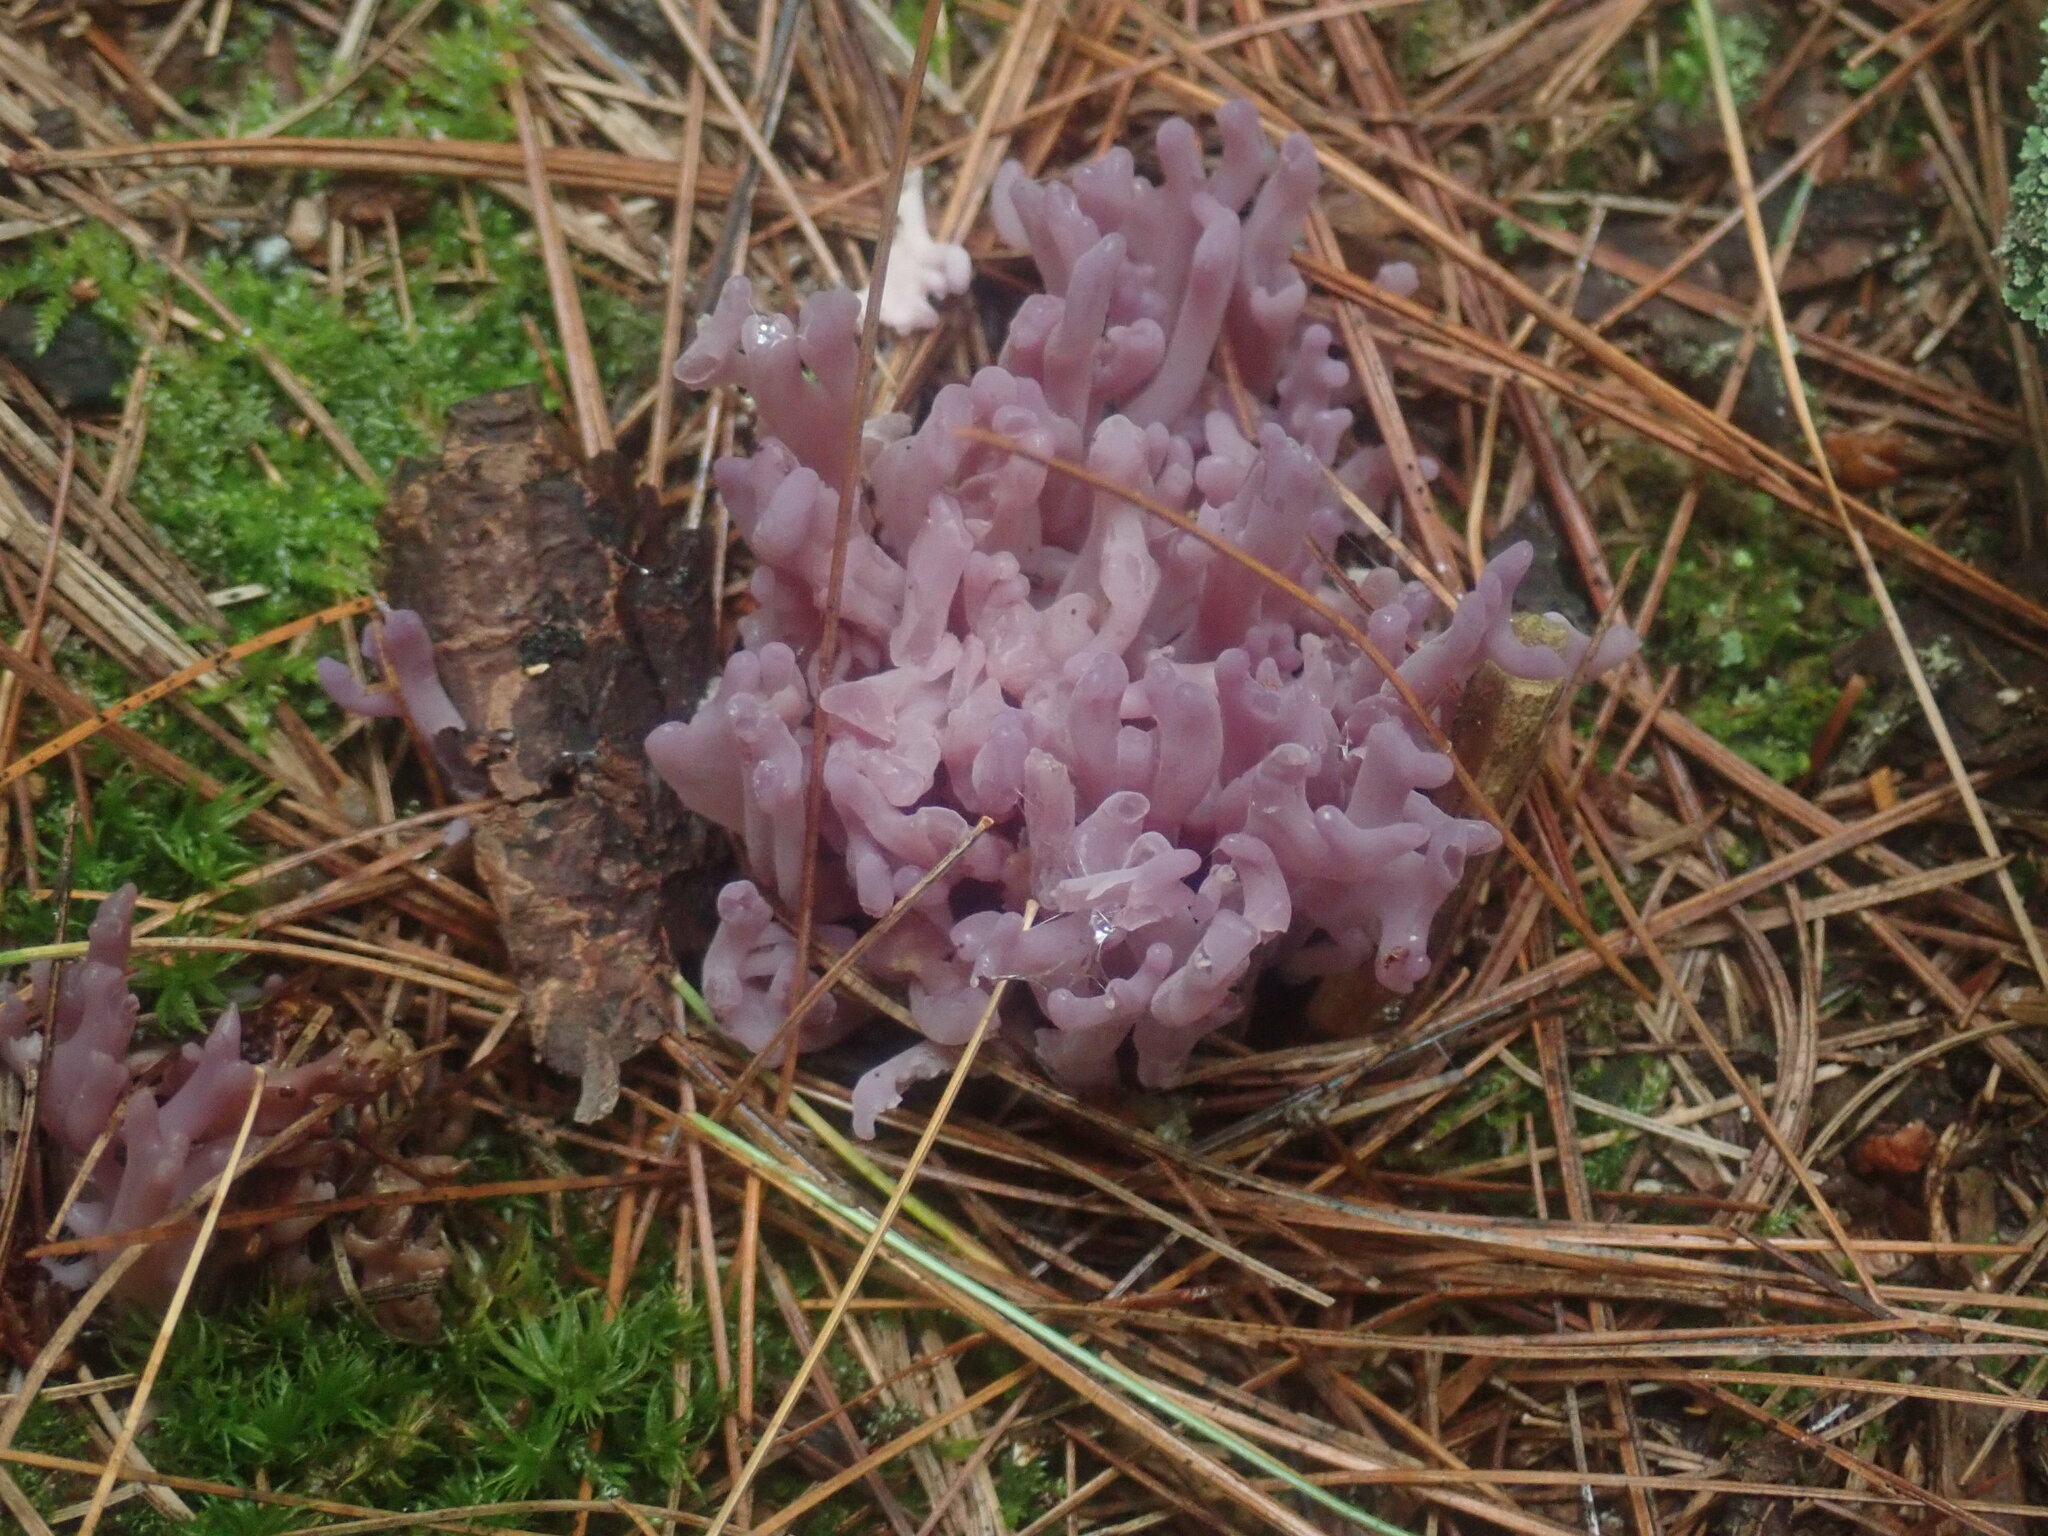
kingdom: Fungi
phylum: Basidiomycota
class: Agaricomycetes
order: Agaricales
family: Clavariaceae
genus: Clavaria
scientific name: Clavaria zollingeri
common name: Violet coral
